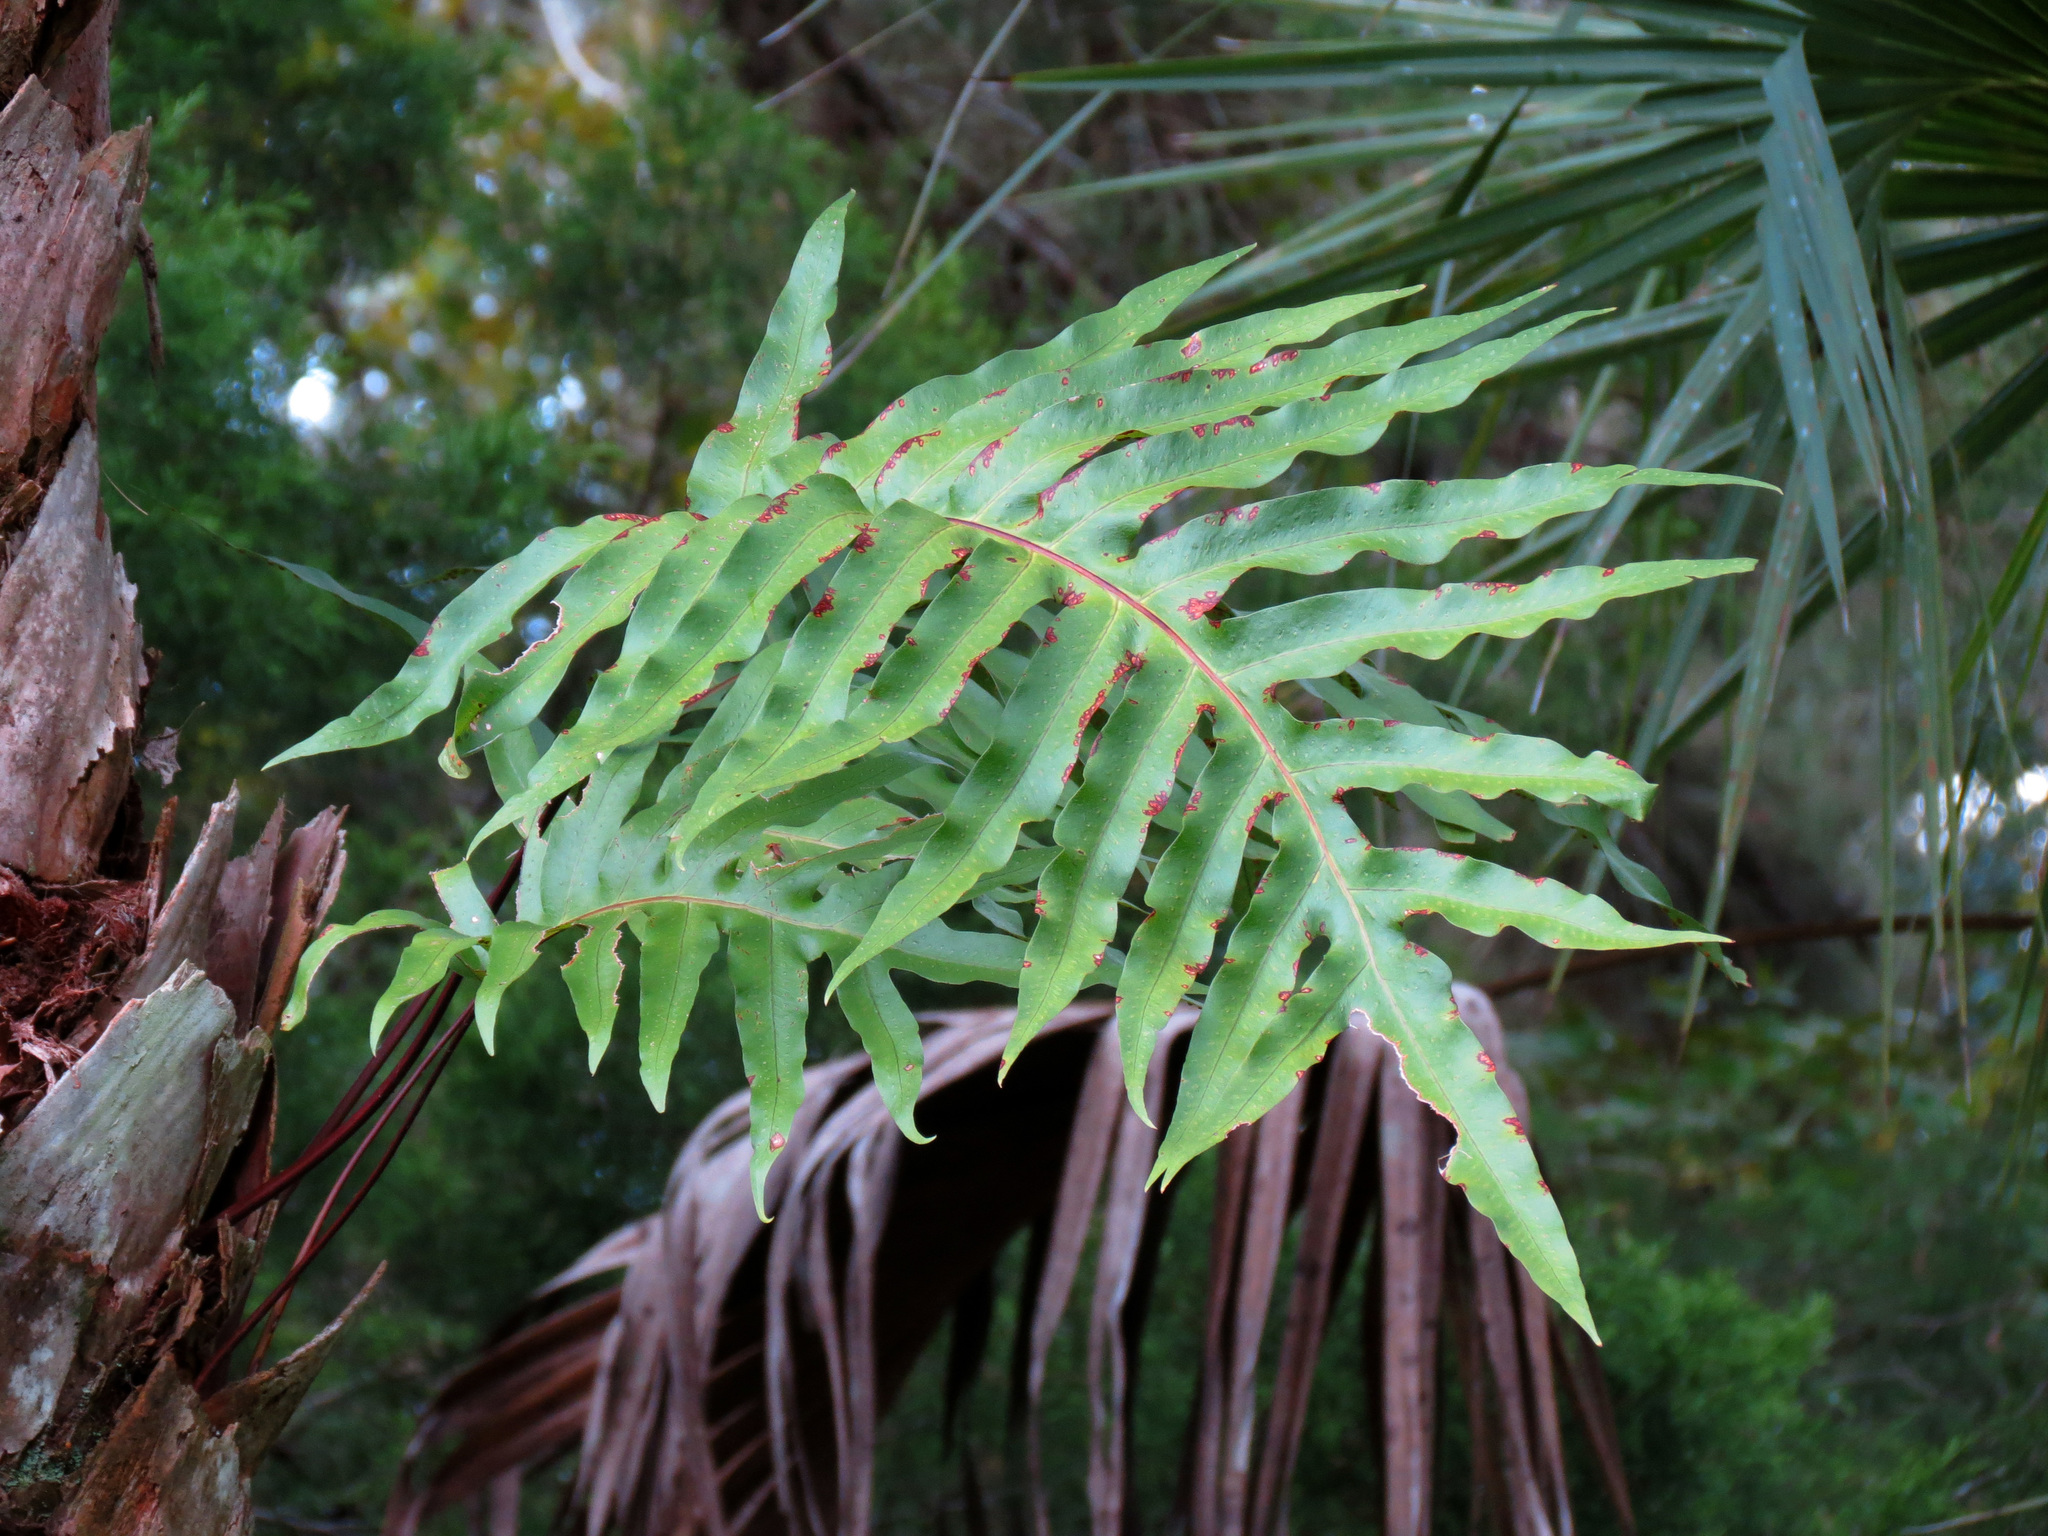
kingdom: Plantae
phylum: Tracheophyta
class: Polypodiopsida
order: Polypodiales
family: Polypodiaceae
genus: Phlebodium
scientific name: Phlebodium aureum
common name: Gold-foot fern
